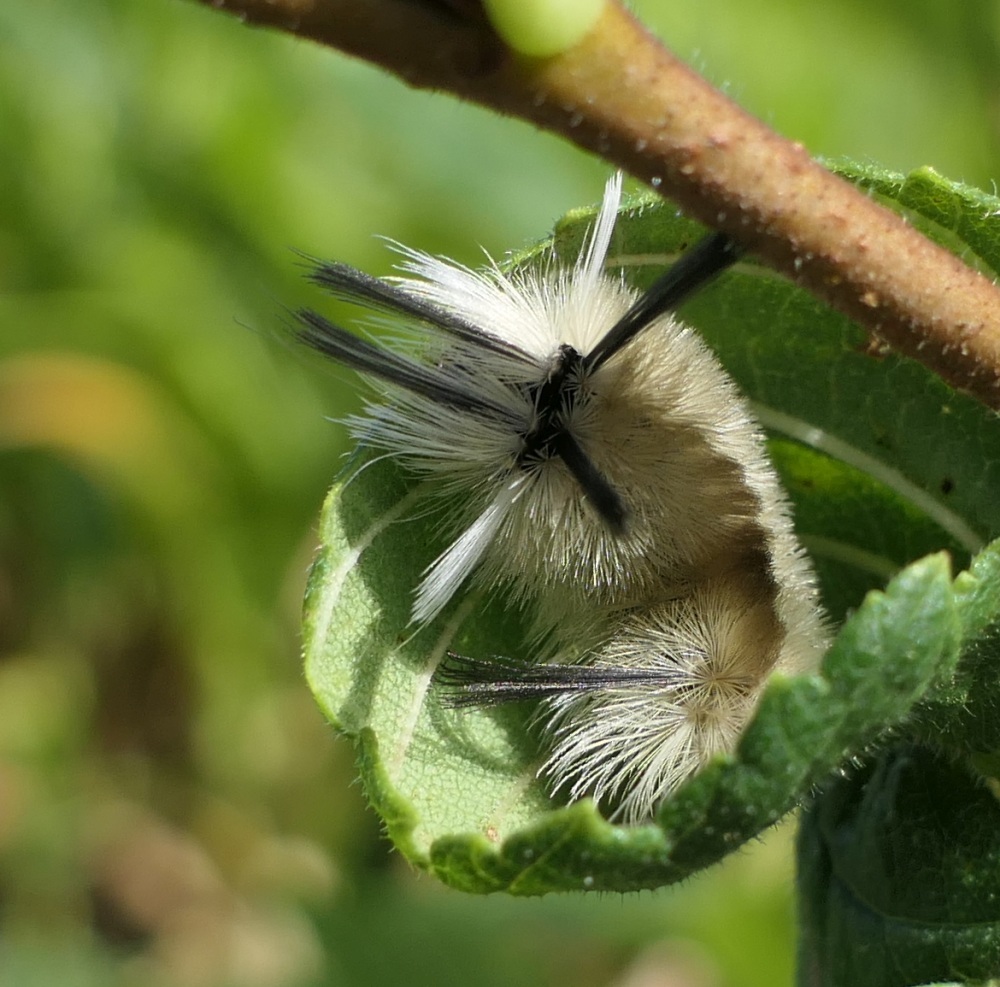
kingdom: Animalia
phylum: Arthropoda
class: Insecta
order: Lepidoptera
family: Erebidae
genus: Halysidota
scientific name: Halysidota tessellaris
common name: Banded tussock moth
